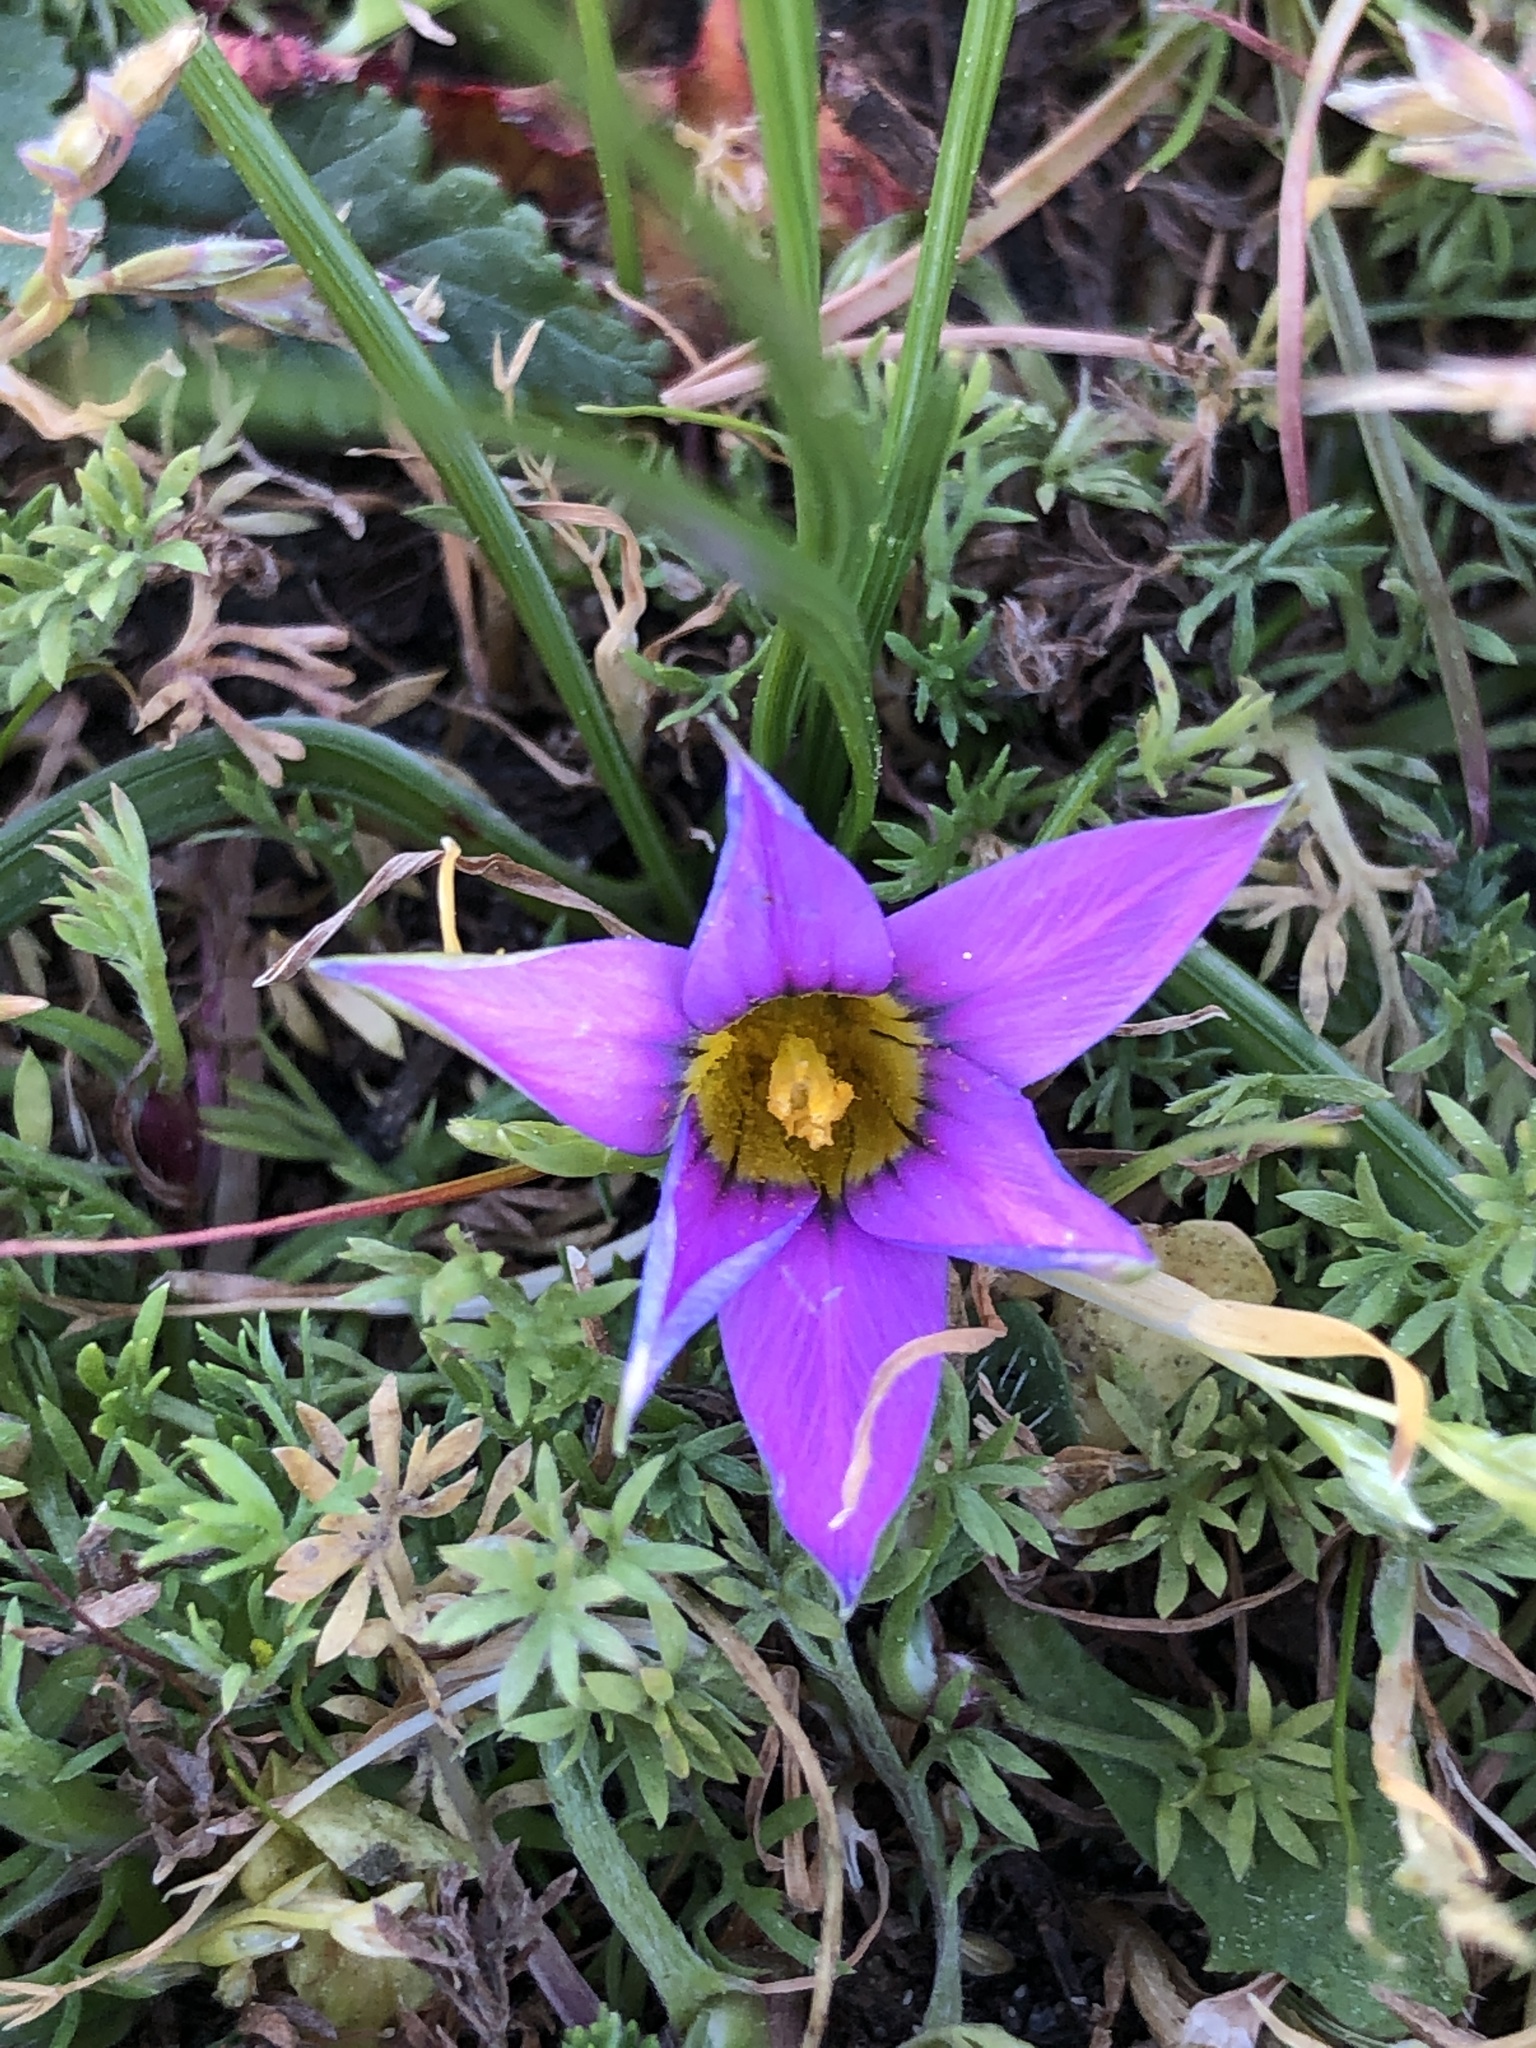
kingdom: Plantae
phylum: Tracheophyta
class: Liliopsida
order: Asparagales
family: Iridaceae
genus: Romulea
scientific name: Romulea rosea
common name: Oniongrass
